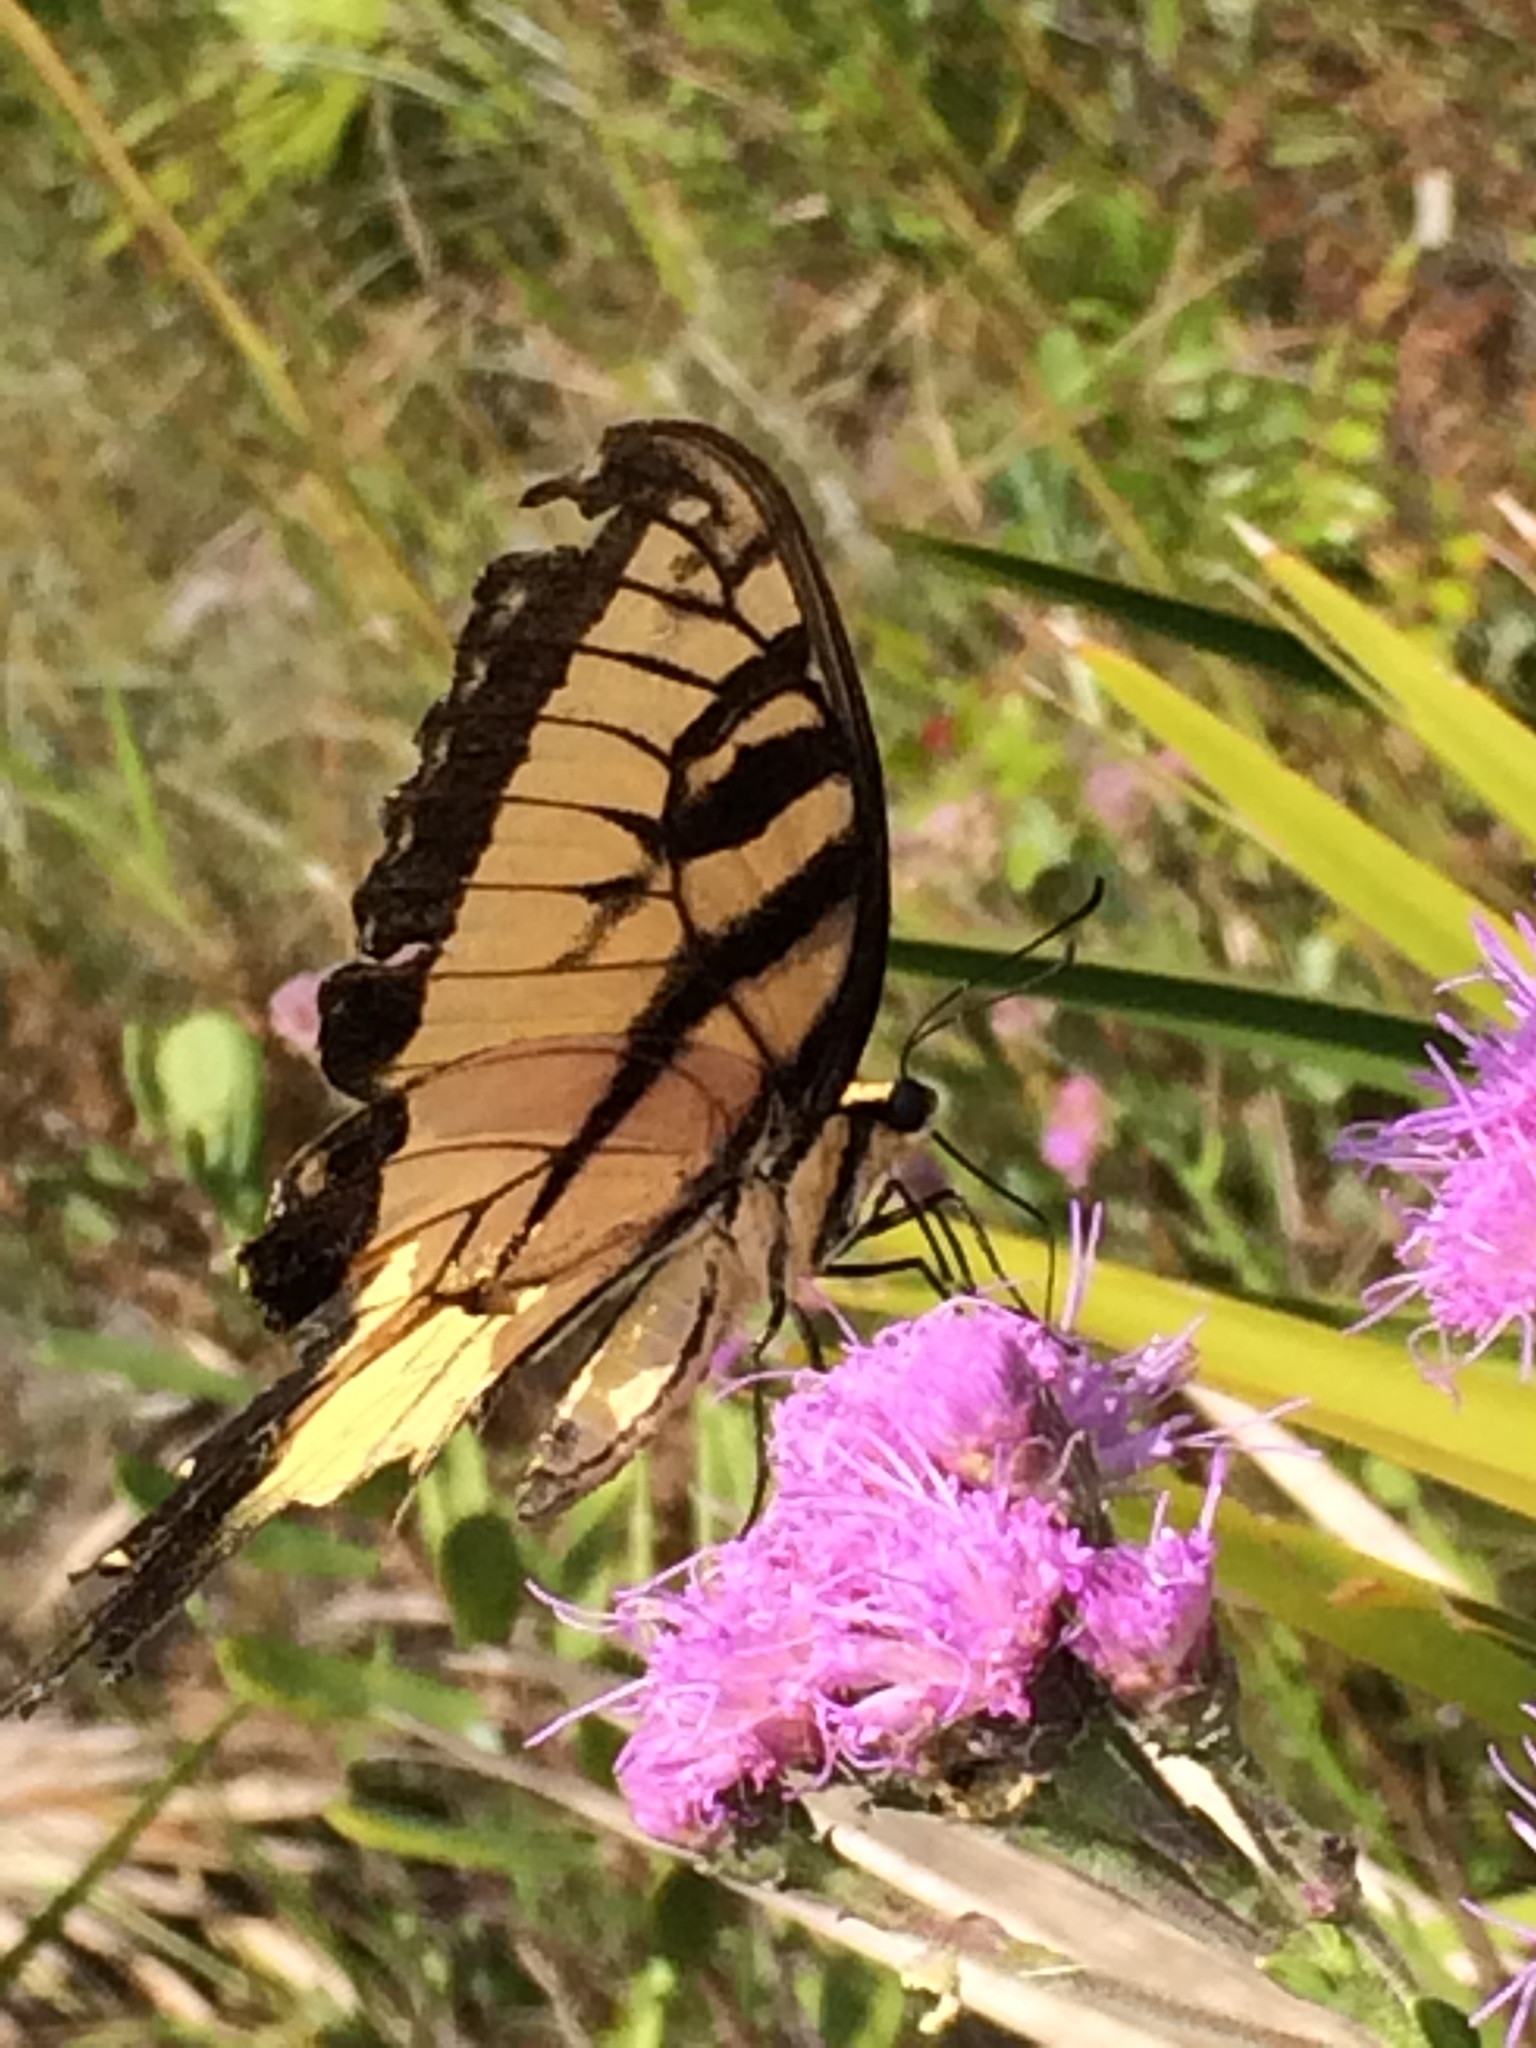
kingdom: Animalia
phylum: Arthropoda
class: Insecta
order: Lepidoptera
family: Papilionidae
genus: Papilio
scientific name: Papilio glaucus
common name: Tiger swallowtail
